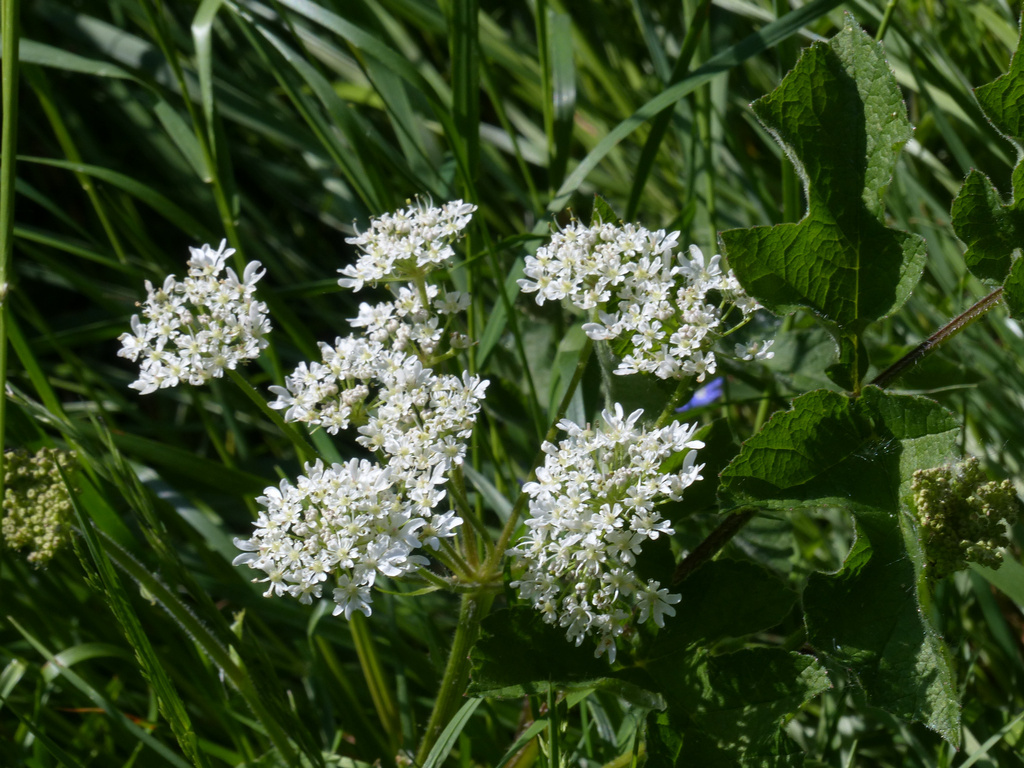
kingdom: Plantae
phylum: Tracheophyta
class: Magnoliopsida
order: Apiales
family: Apiaceae
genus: Heracleum
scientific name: Heracleum sphondylium
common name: Hogweed
